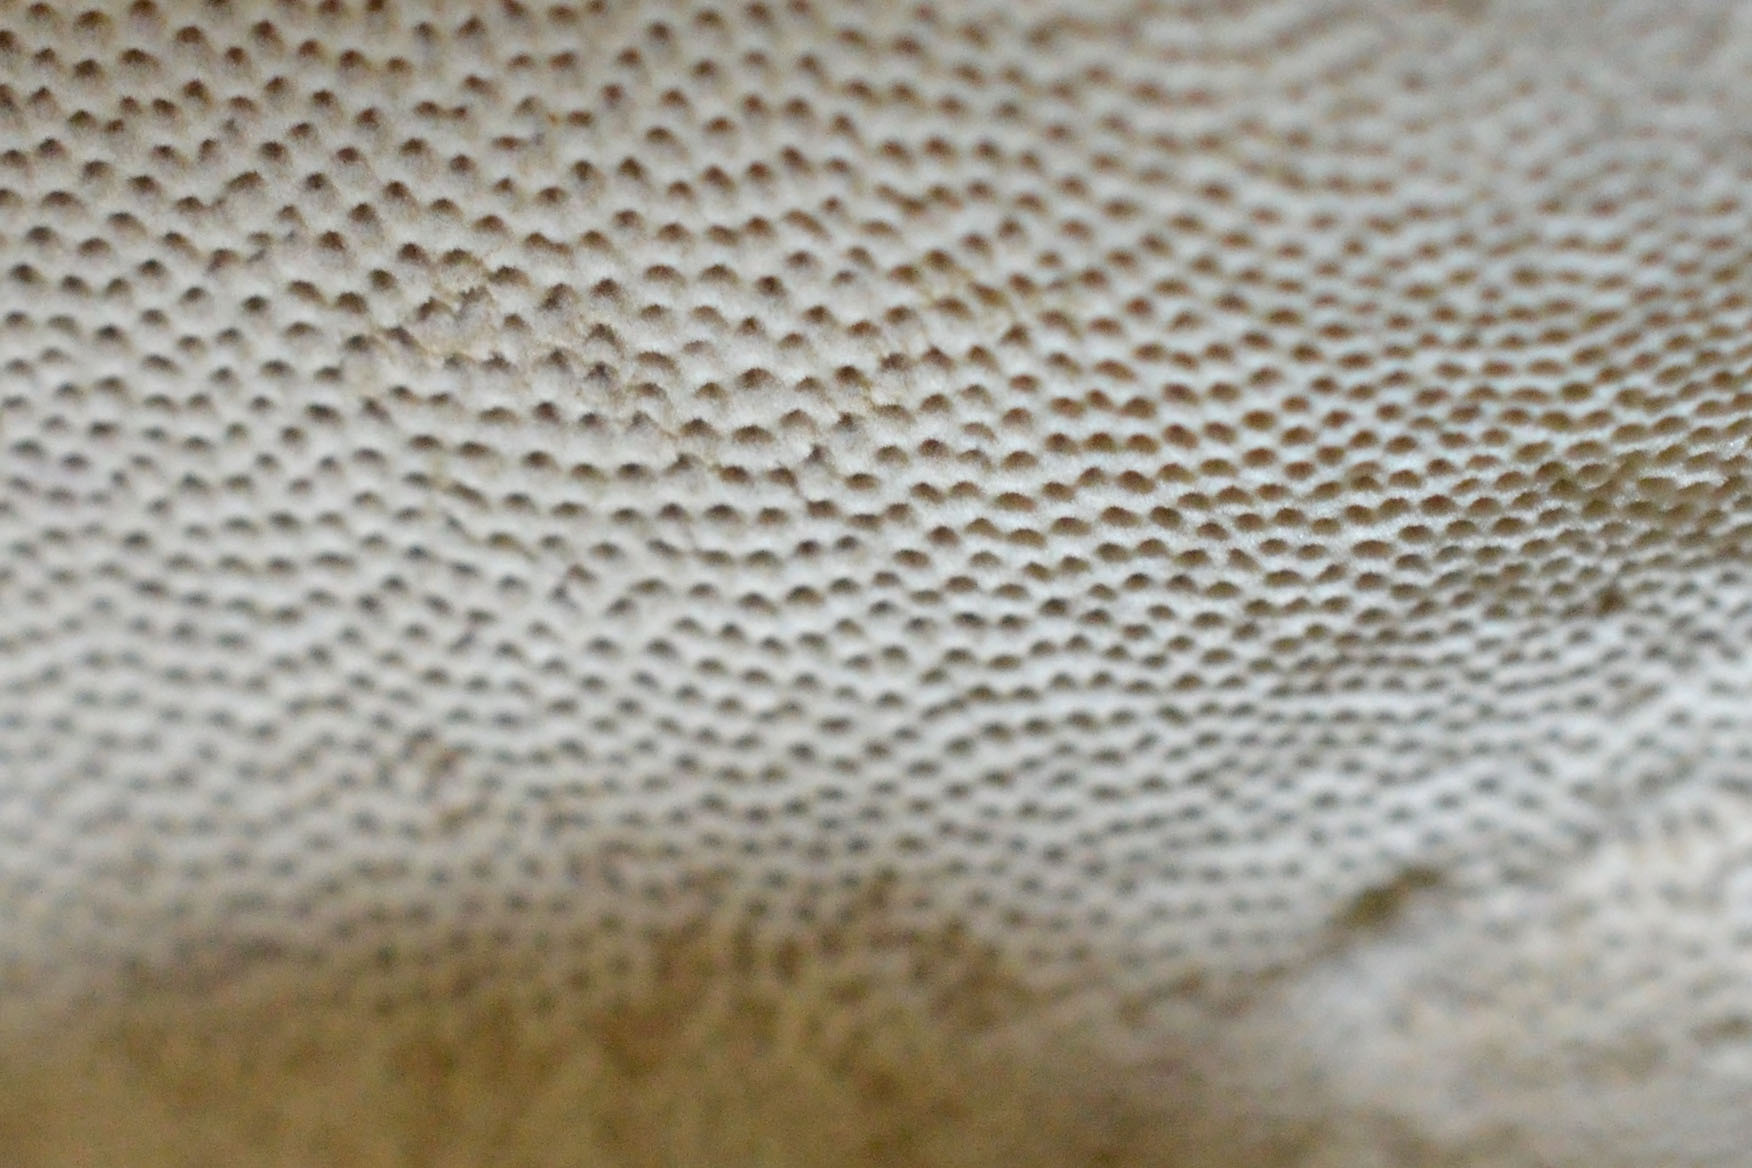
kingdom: Fungi
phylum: Basidiomycota
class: Agaricomycetes
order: Polyporales
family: Polyporaceae
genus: Fomes
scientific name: Fomes fomentarius
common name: Hoof fungus
